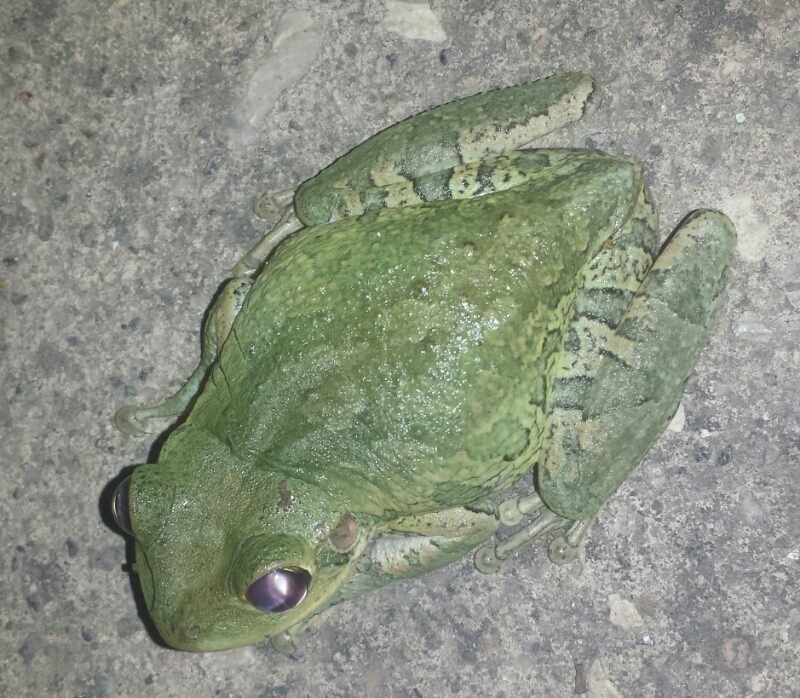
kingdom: Animalia
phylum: Chordata
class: Amphibia
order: Anura
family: Hylidae
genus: Osteopilus
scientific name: Osteopilus septentrionalis
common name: Cuban treefrog
